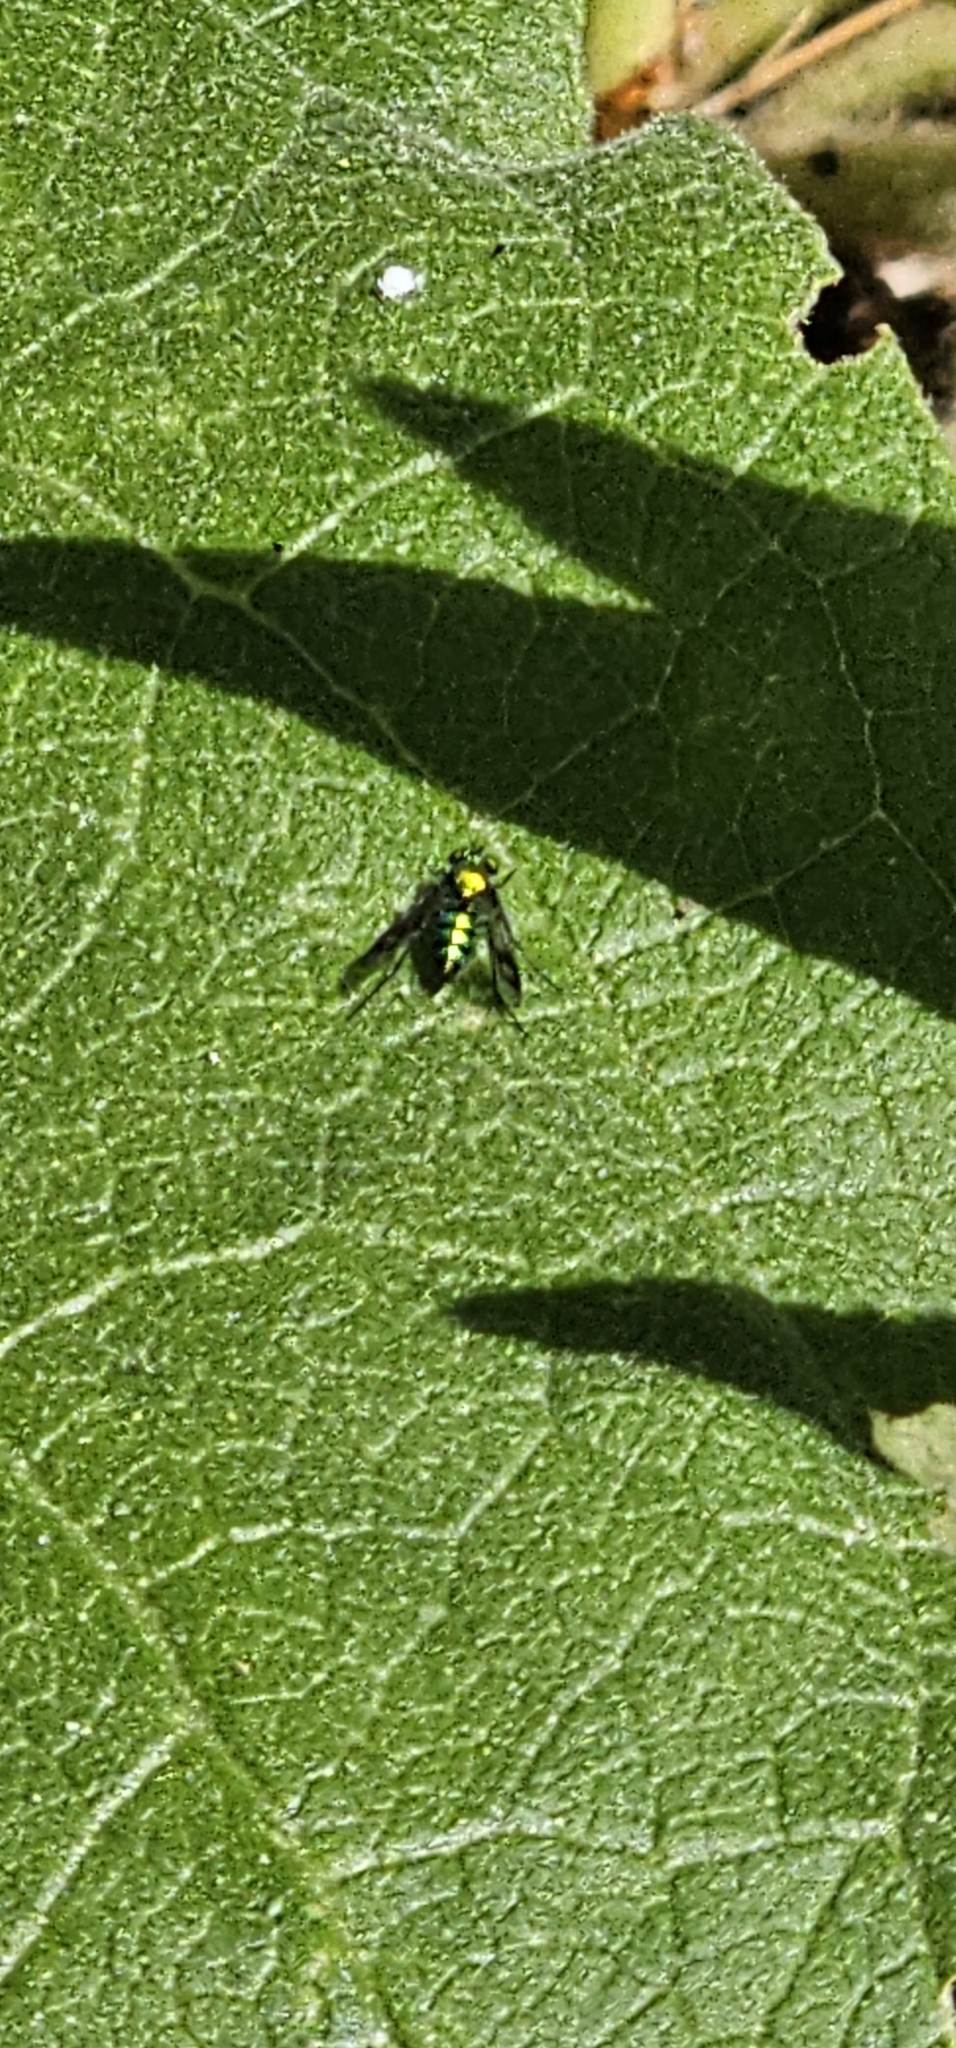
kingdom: Animalia
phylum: Arthropoda
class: Insecta
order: Diptera
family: Dolichopodidae
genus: Condylostylus
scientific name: Condylostylus occidentalis
